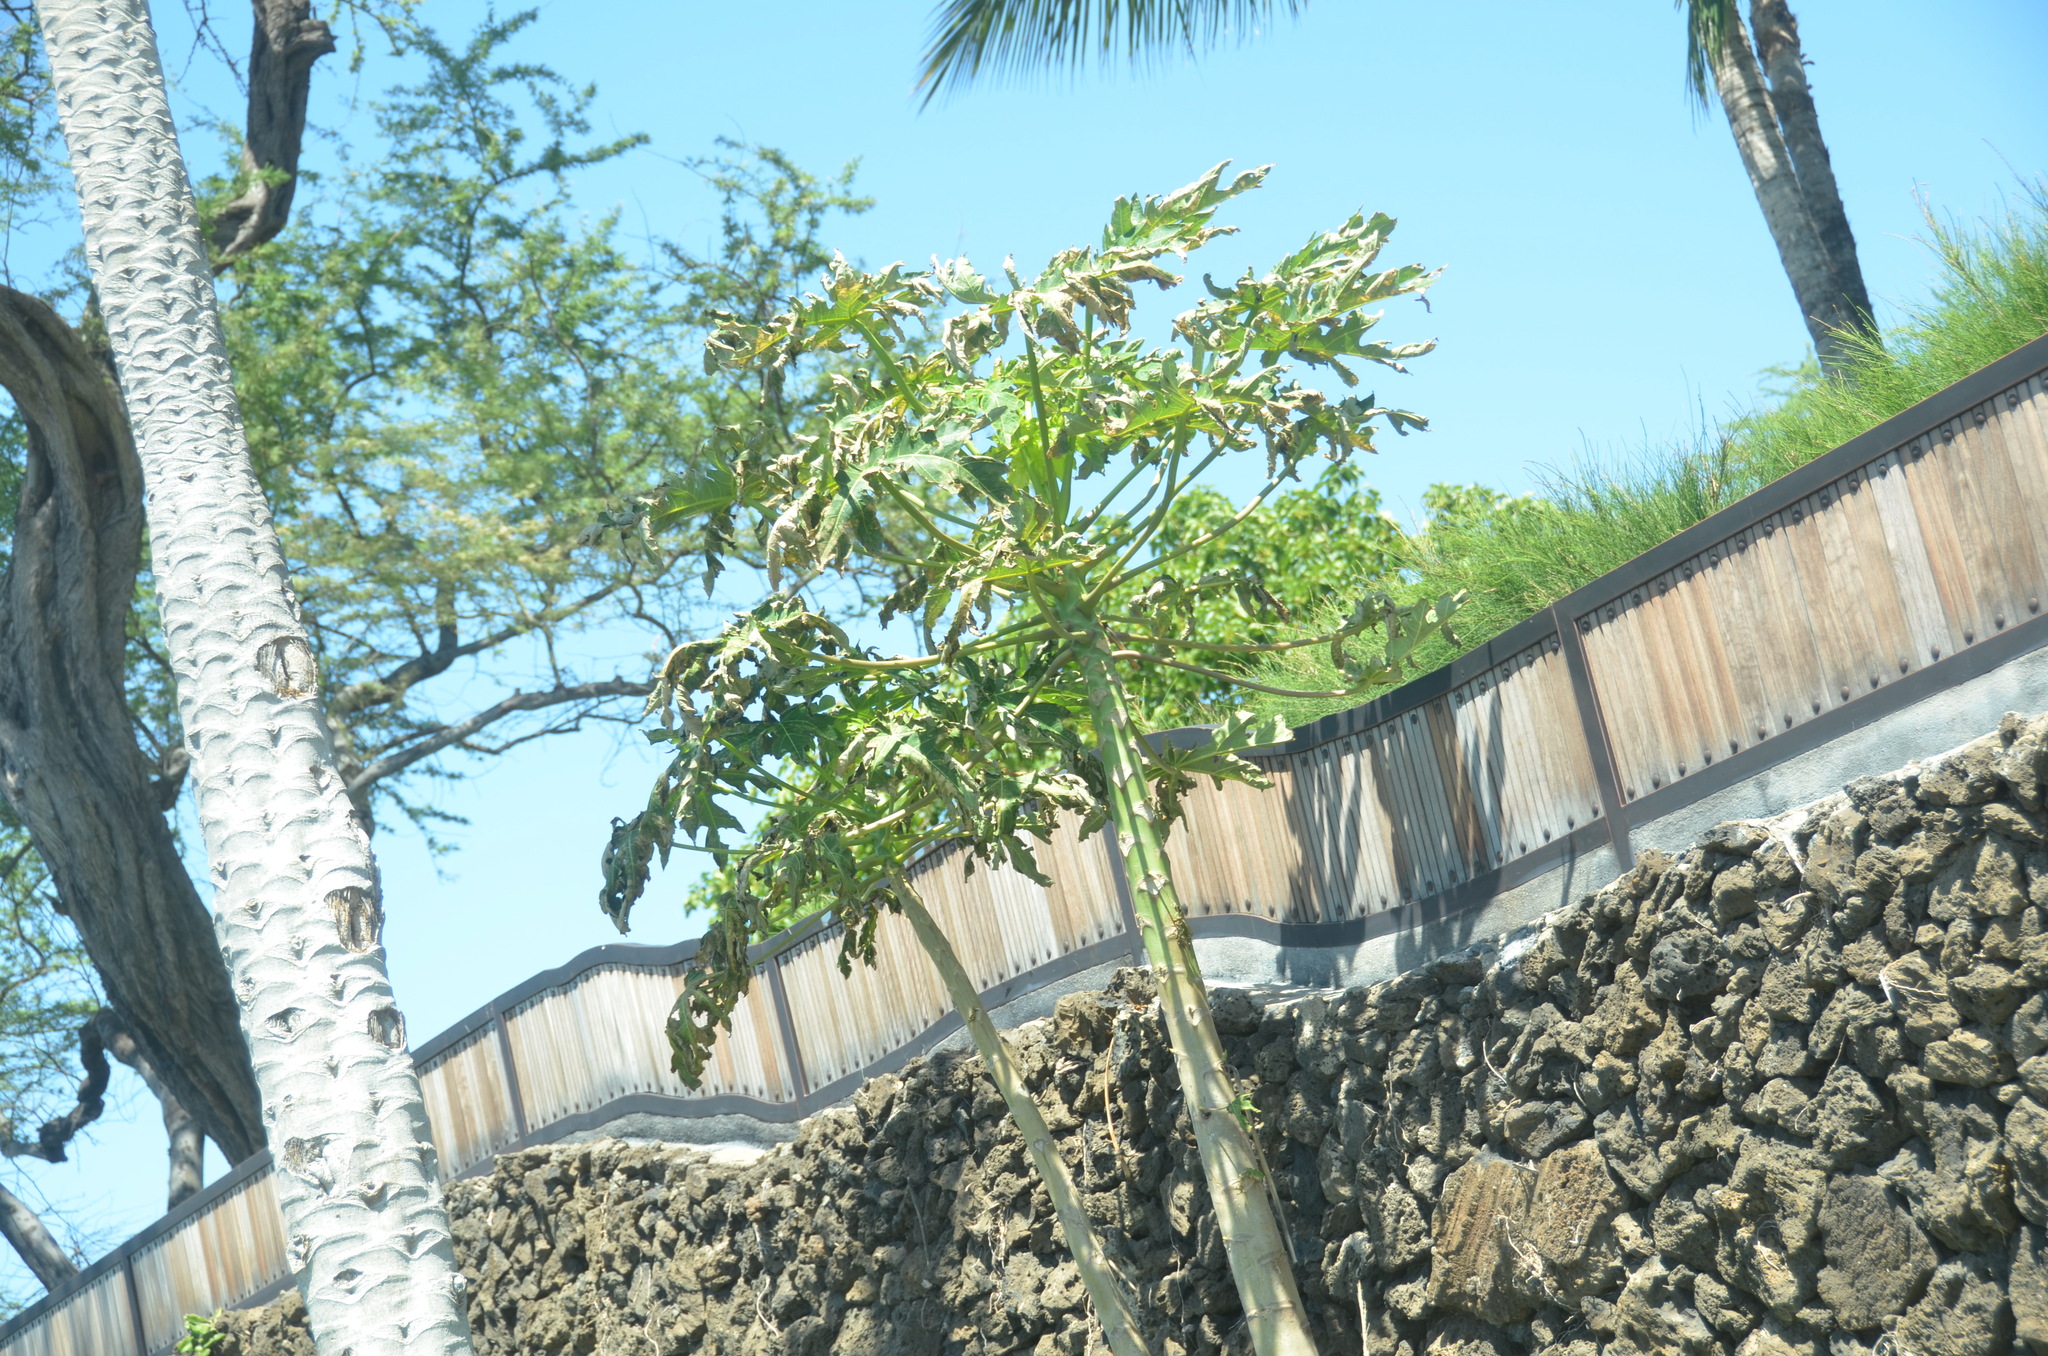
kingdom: Plantae
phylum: Tracheophyta
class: Magnoliopsida
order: Brassicales
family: Caricaceae
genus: Carica
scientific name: Carica papaya
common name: Papaya
